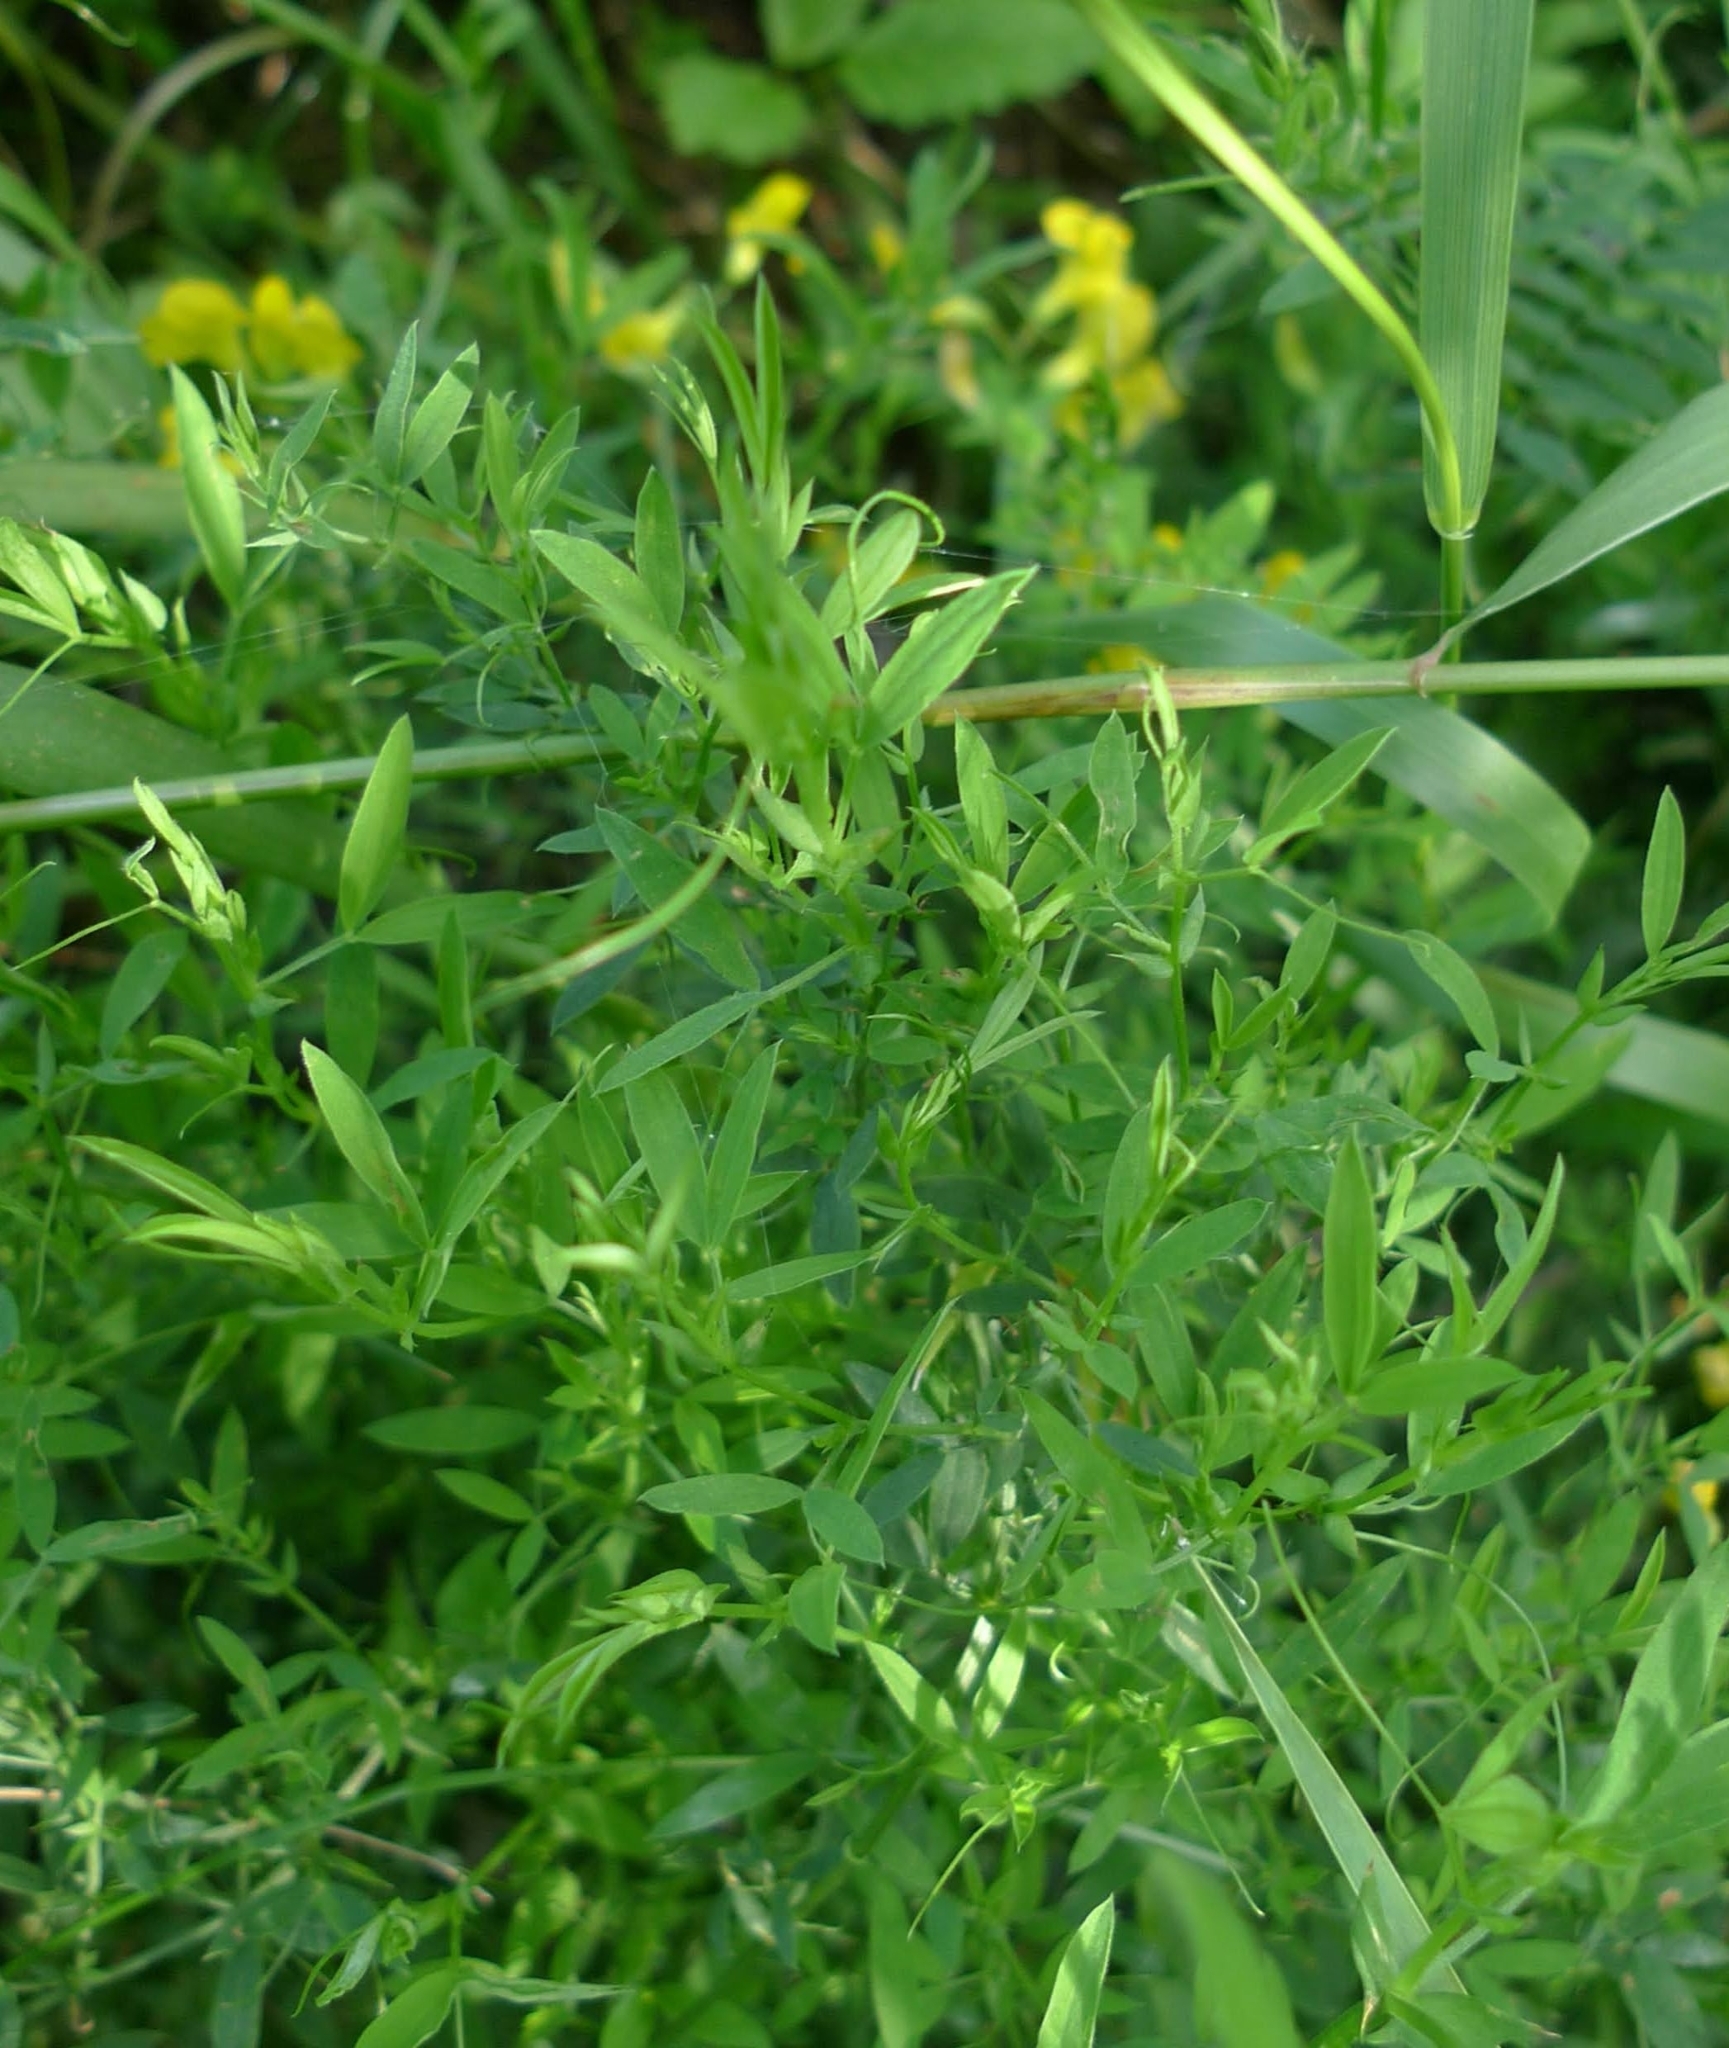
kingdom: Plantae
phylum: Tracheophyta
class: Magnoliopsida
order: Fabales
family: Fabaceae
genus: Lathyrus
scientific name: Lathyrus pratensis
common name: Meadow vetchling
